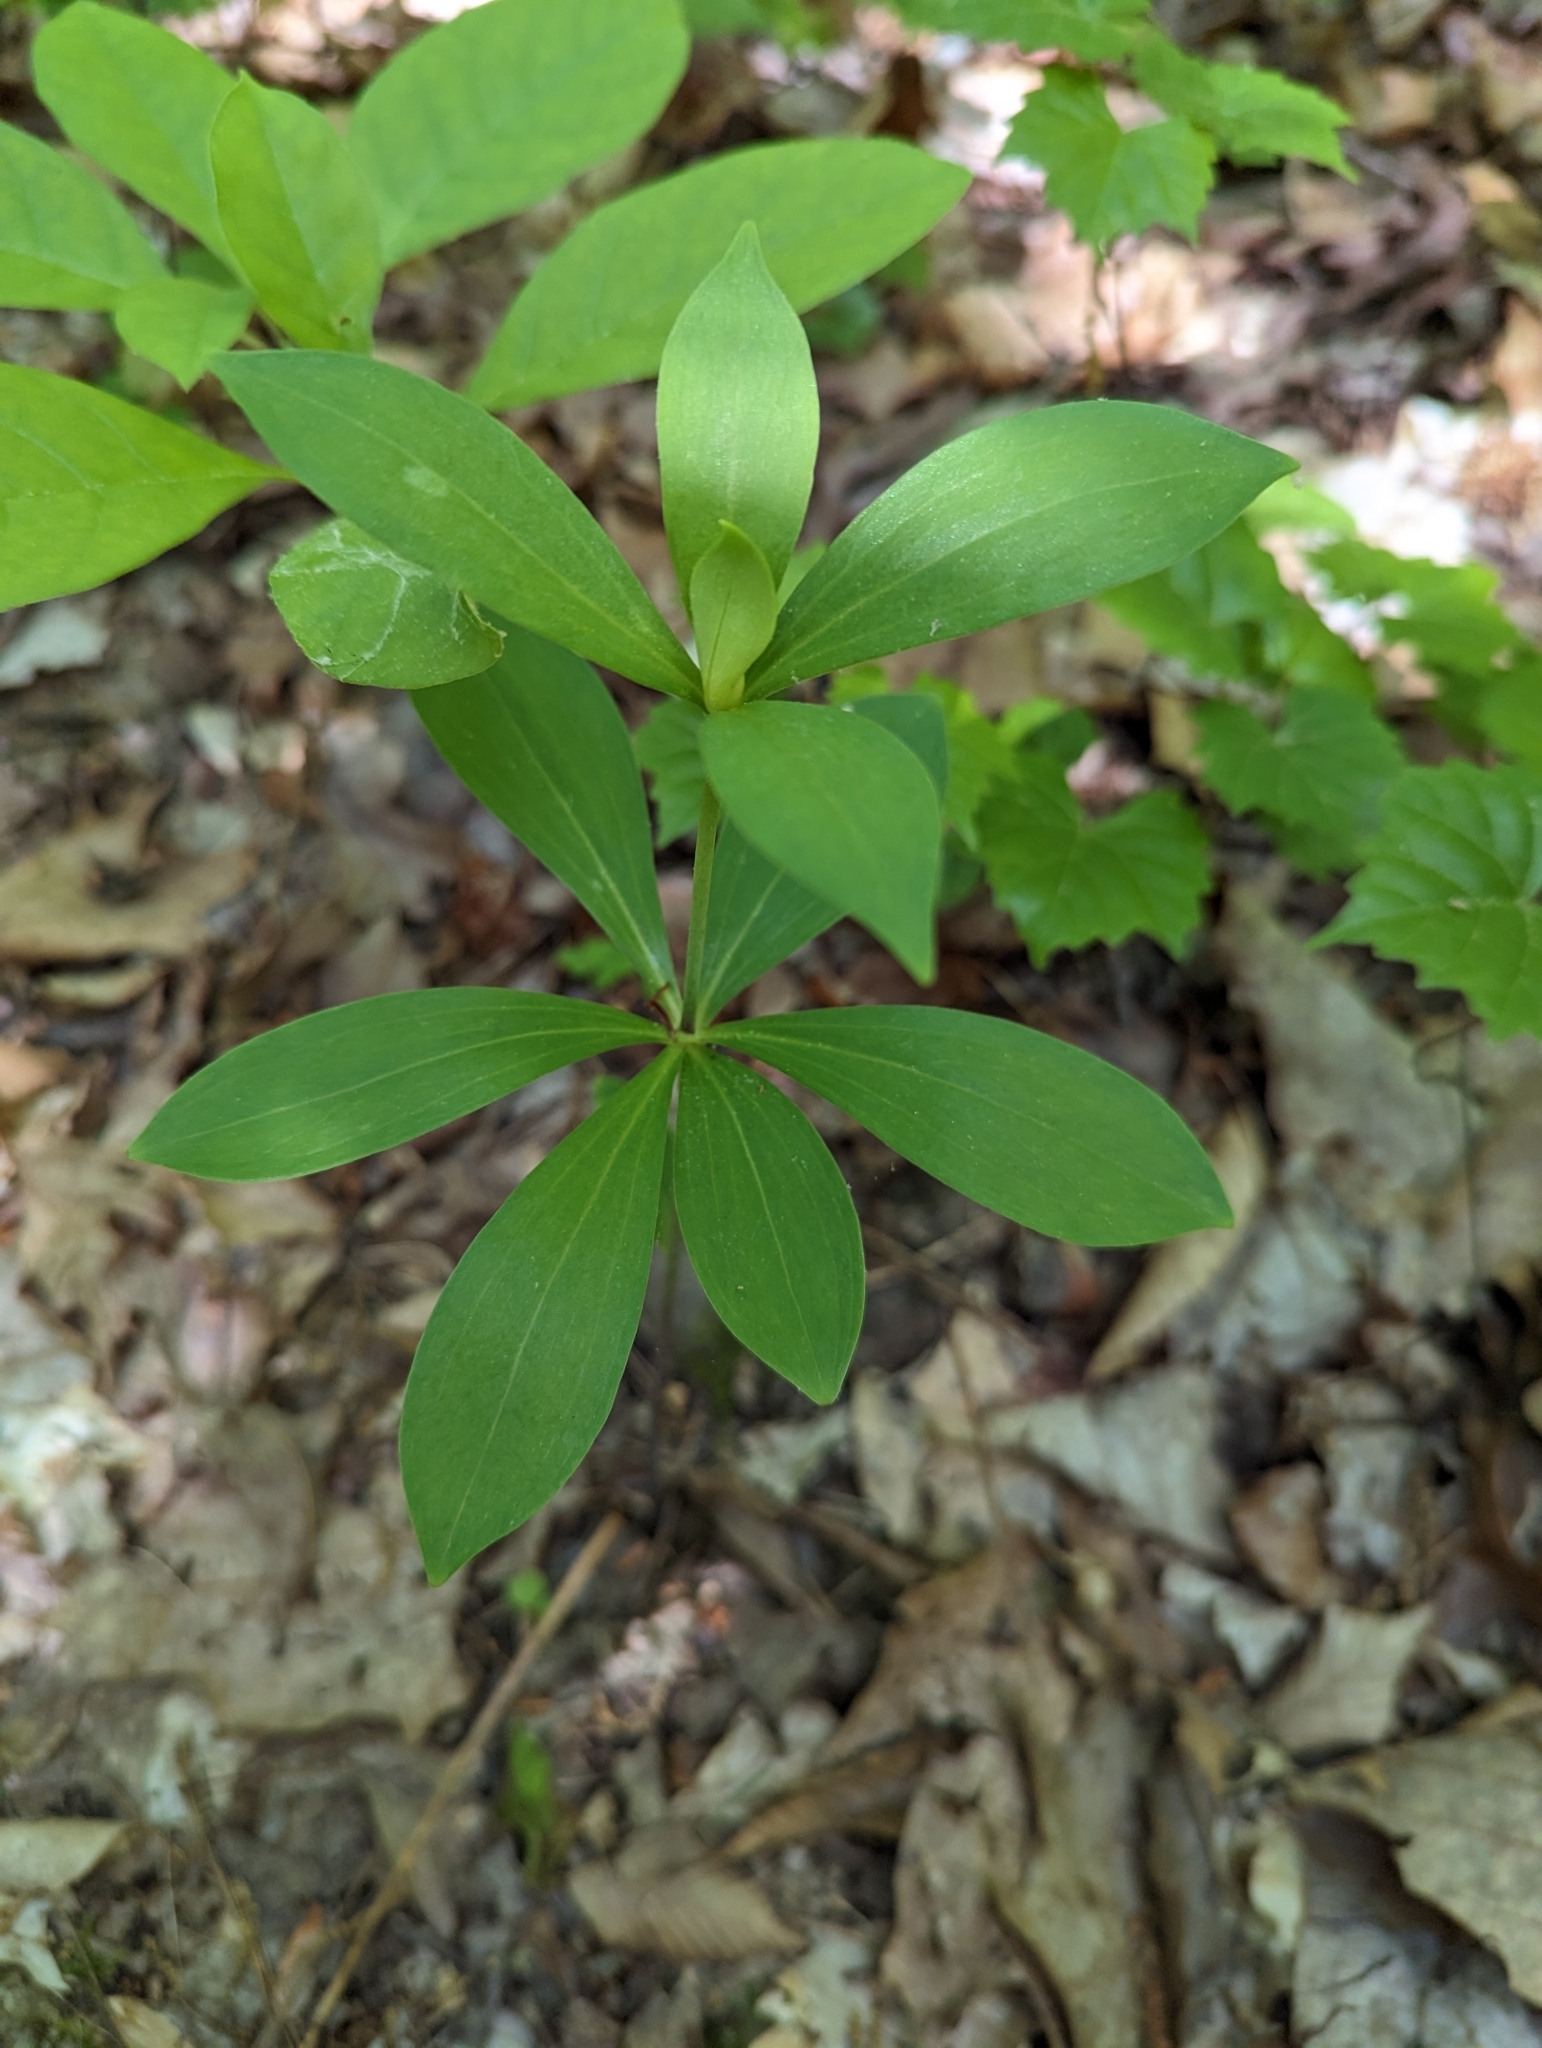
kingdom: Plantae
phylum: Tracheophyta
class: Liliopsida
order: Liliales
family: Liliaceae
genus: Lilium
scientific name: Lilium michauxii
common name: Carolina lily
